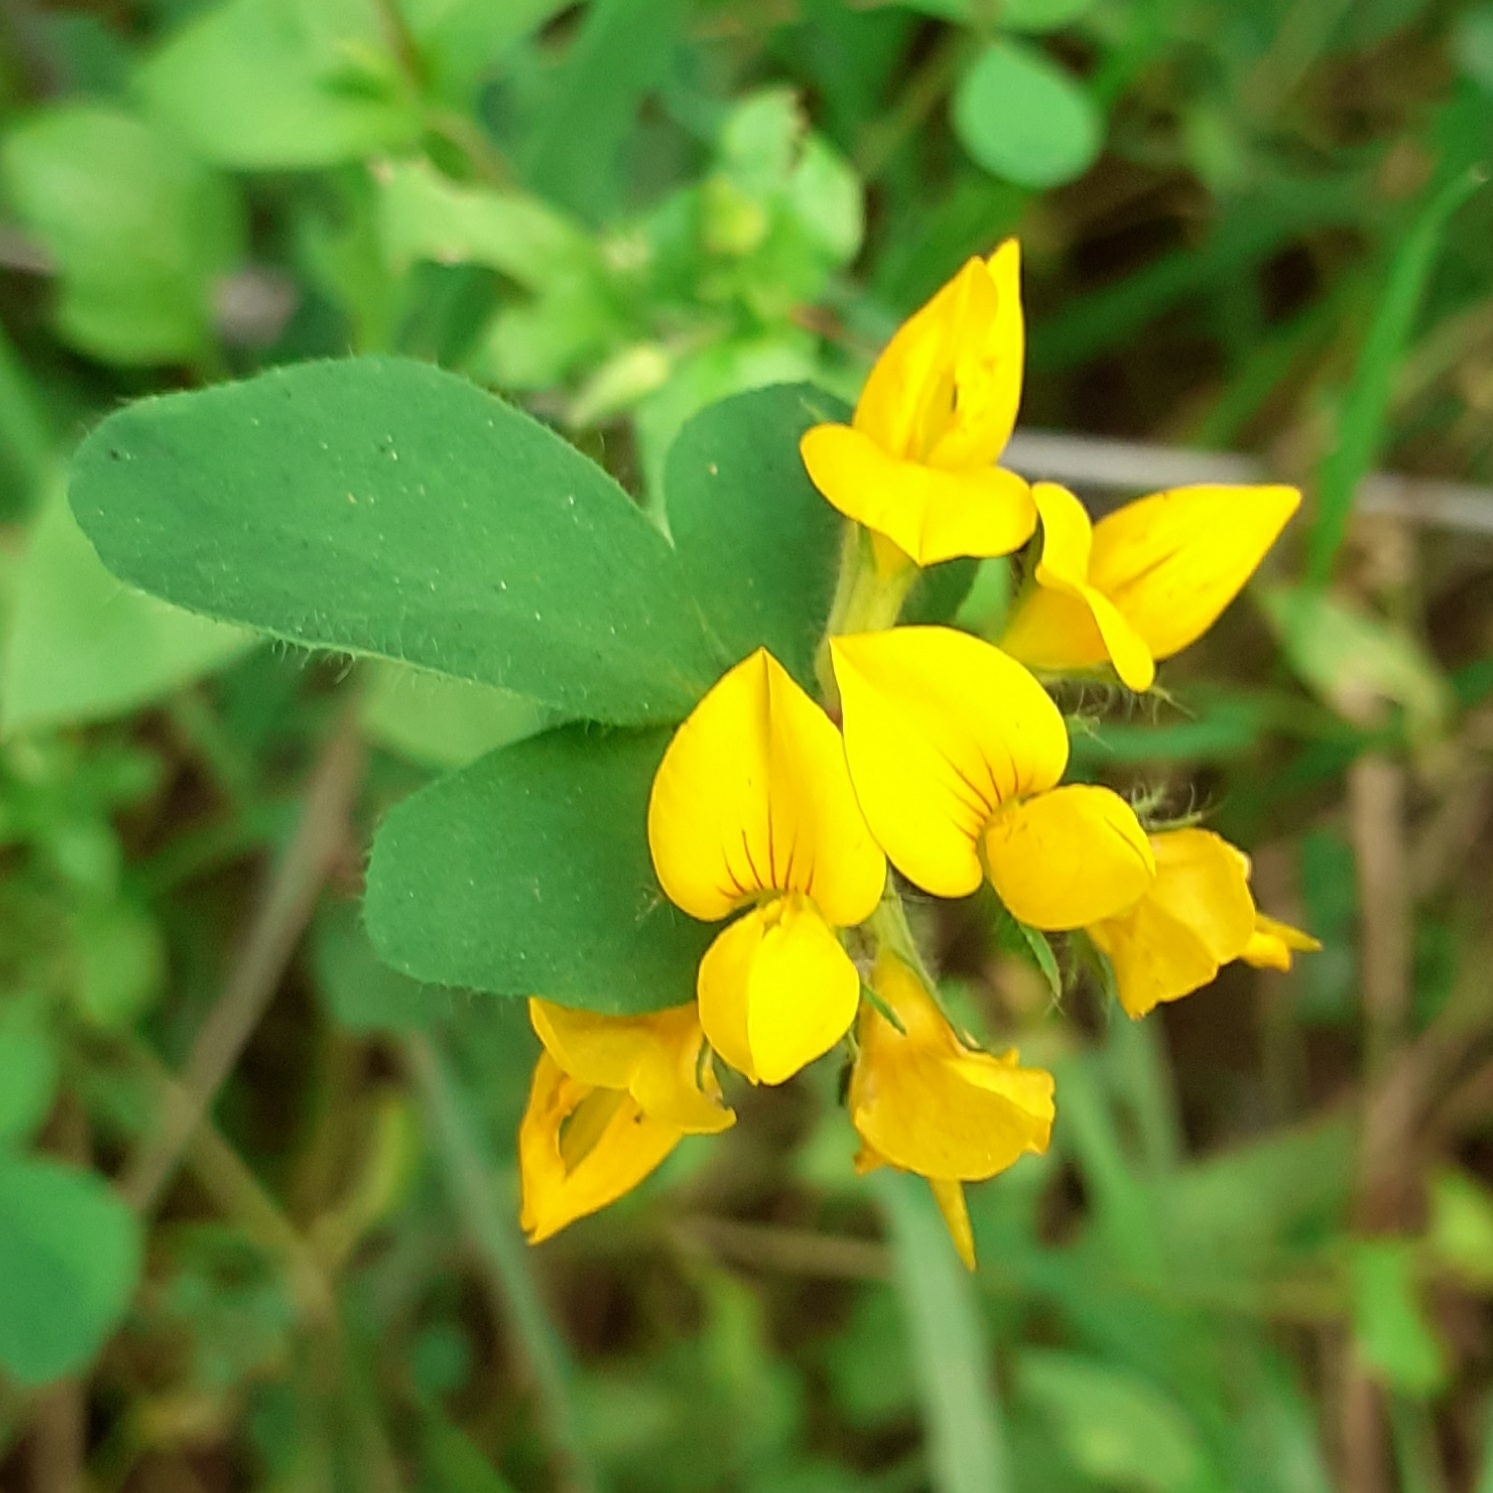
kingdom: Plantae
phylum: Tracheophyta
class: Magnoliopsida
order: Fabales
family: Fabaceae
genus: Lotus
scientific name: Lotus pedunculatus
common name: Greater birdsfoot-trefoil
